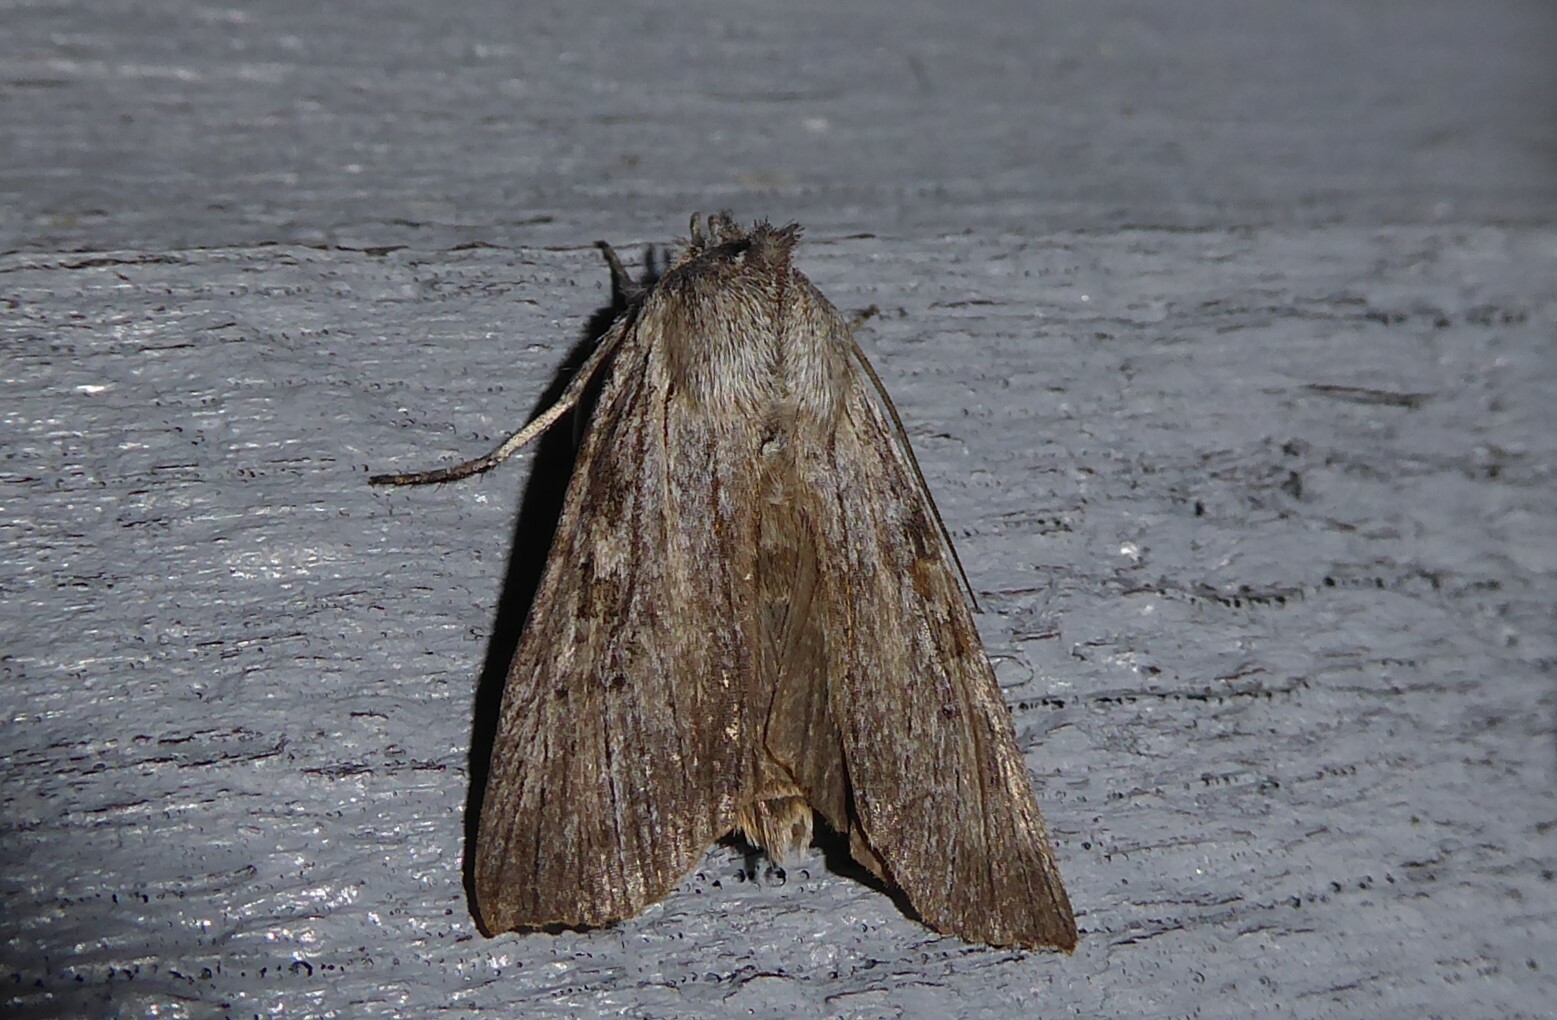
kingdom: Animalia
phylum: Arthropoda
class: Insecta
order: Lepidoptera
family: Noctuidae
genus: Physetica
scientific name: Physetica phricias
